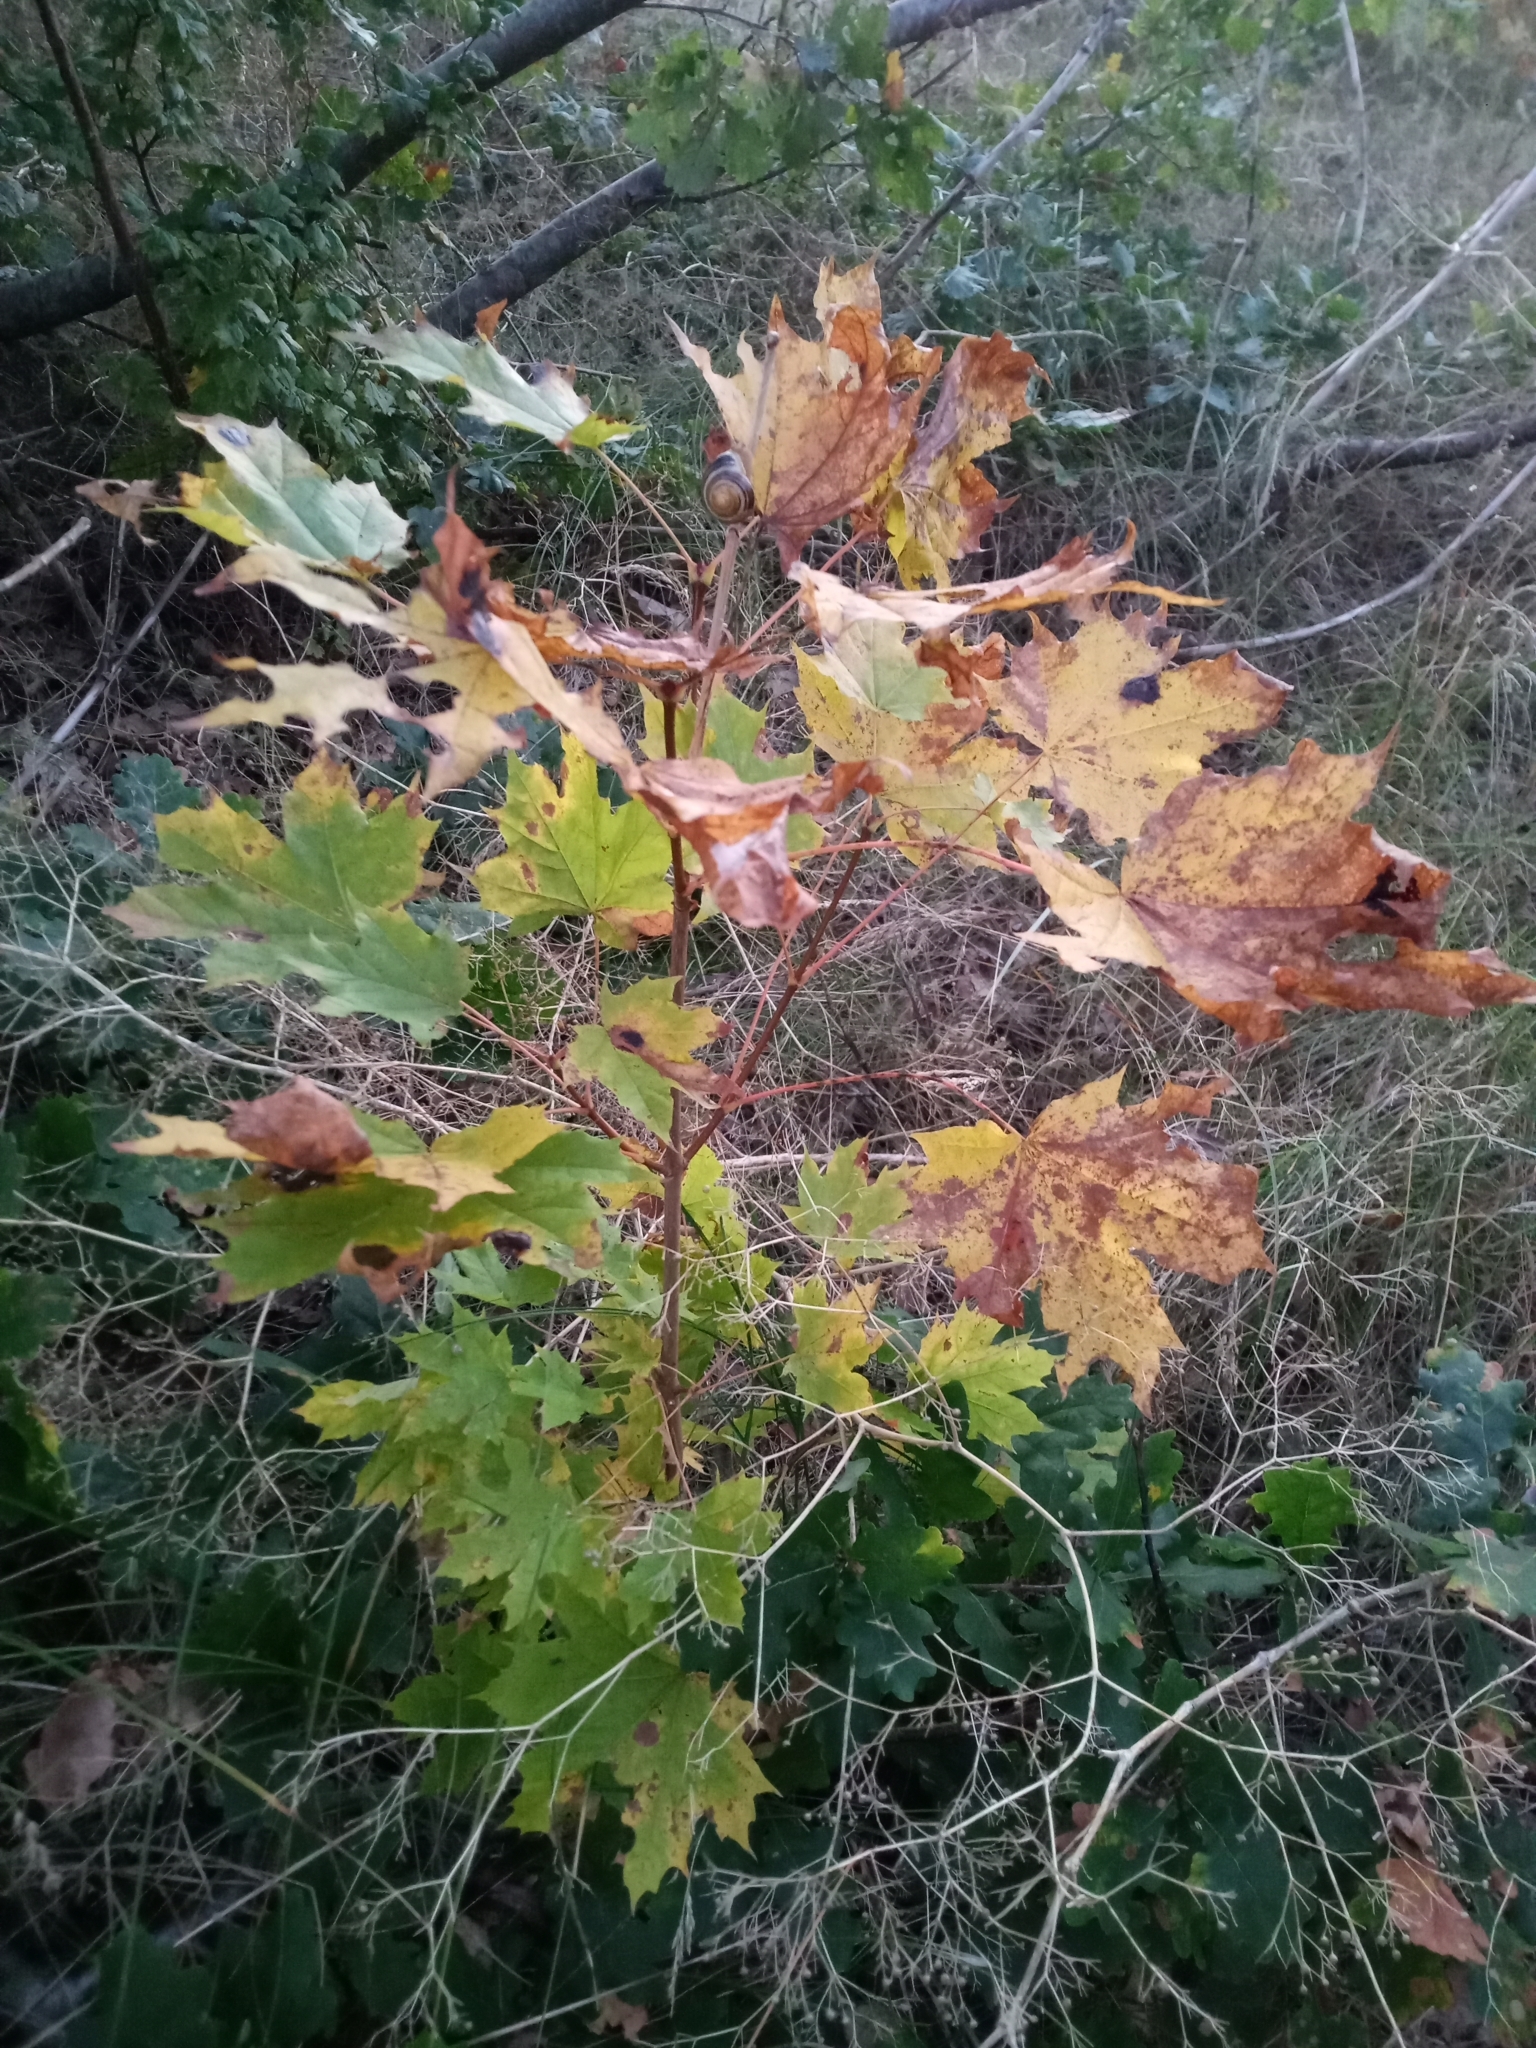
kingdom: Plantae
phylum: Tracheophyta
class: Magnoliopsida
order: Sapindales
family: Sapindaceae
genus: Acer
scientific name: Acer platanoides
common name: Norway maple
